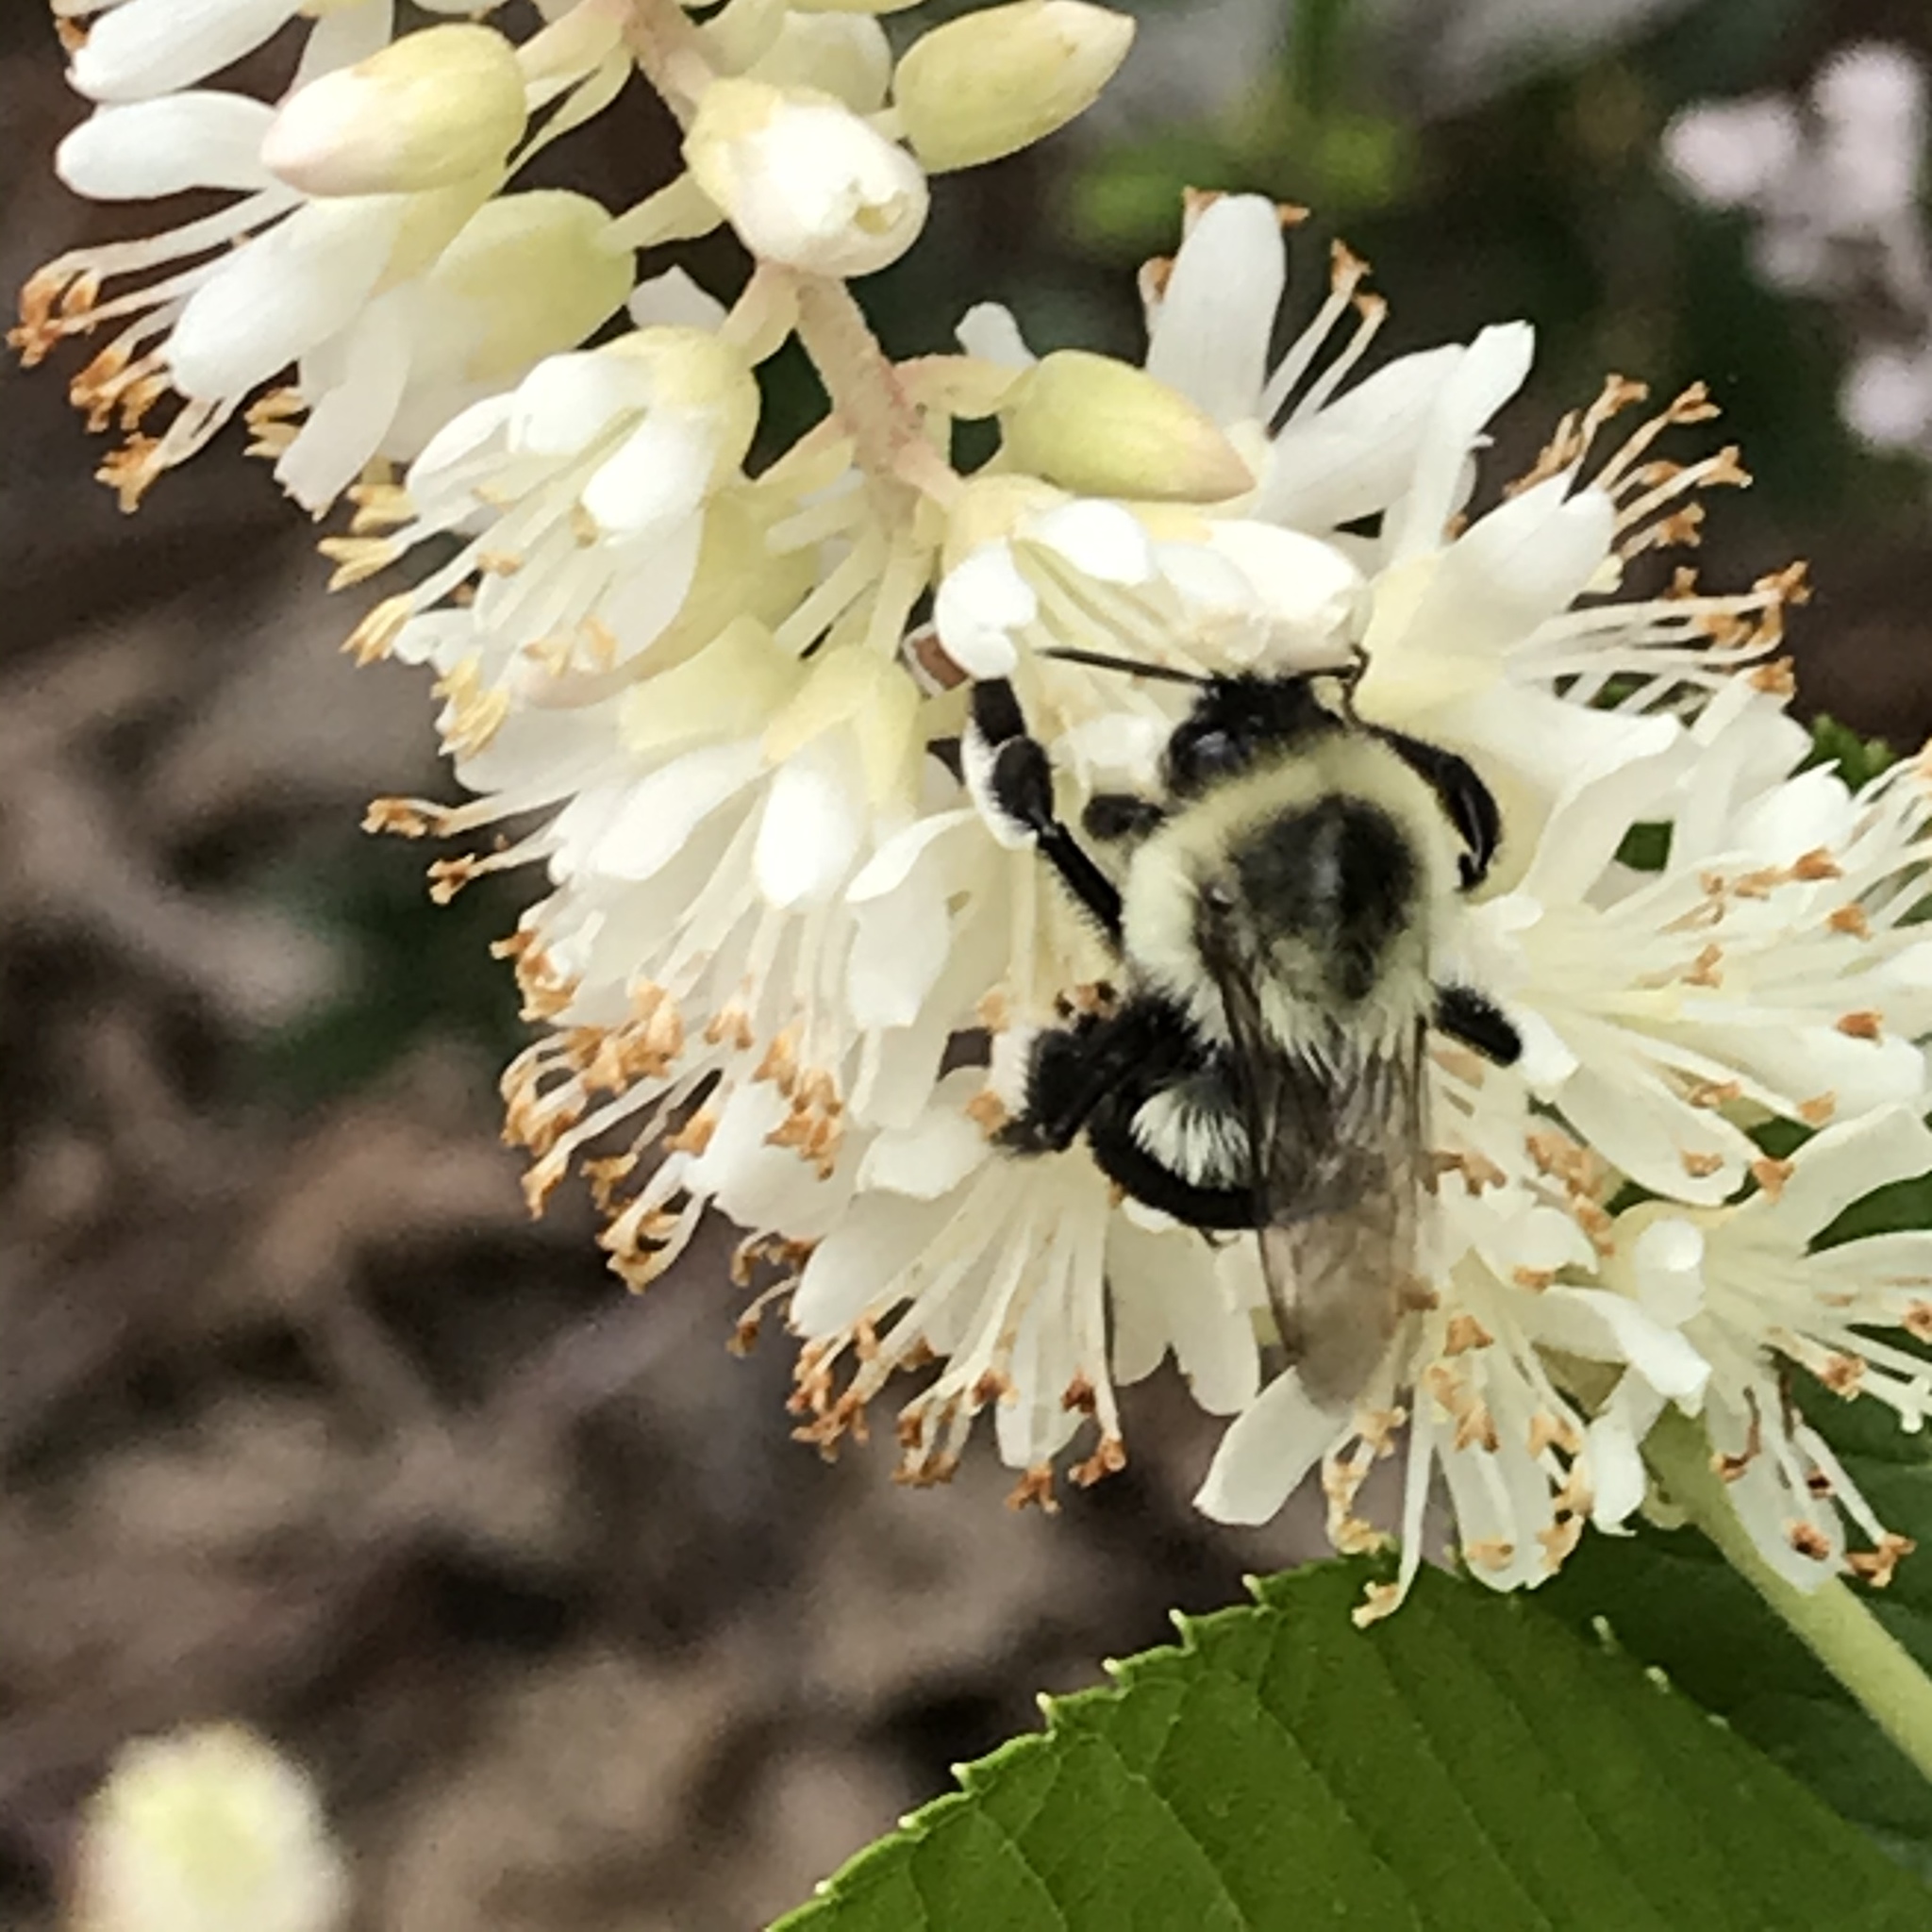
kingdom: Animalia
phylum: Arthropoda
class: Insecta
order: Hymenoptera
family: Apidae
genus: Bombus
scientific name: Bombus impatiens
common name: Common eastern bumble bee
